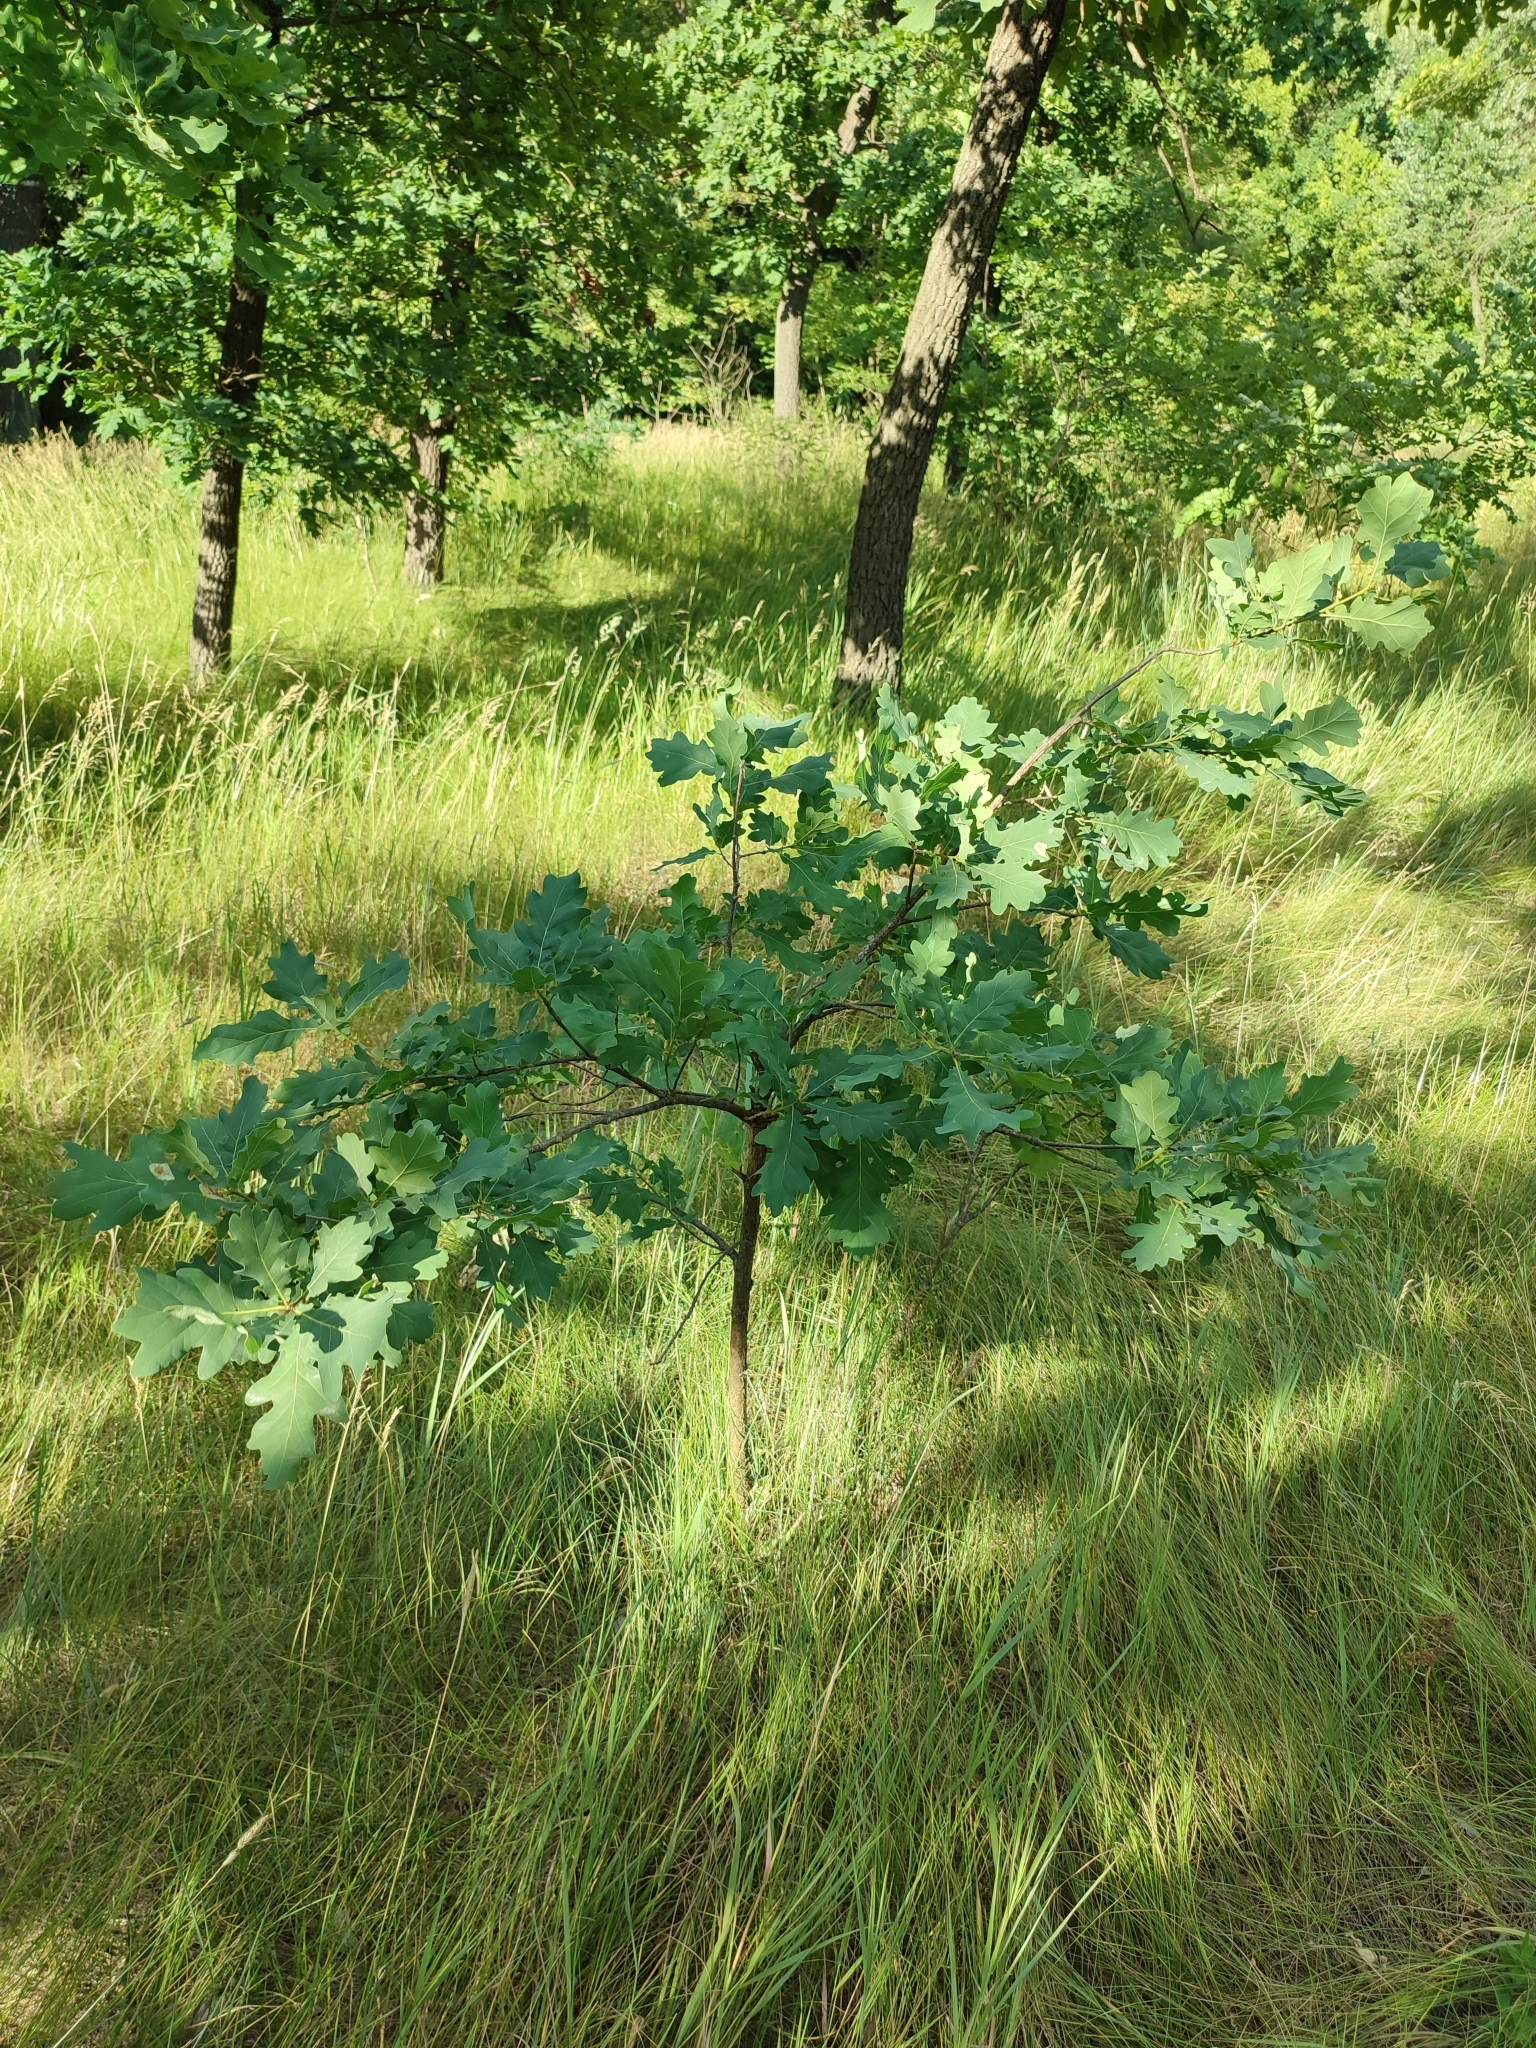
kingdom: Plantae
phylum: Tracheophyta
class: Magnoliopsida
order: Fagales
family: Fagaceae
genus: Quercus
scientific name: Quercus robur
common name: Pedunculate oak
